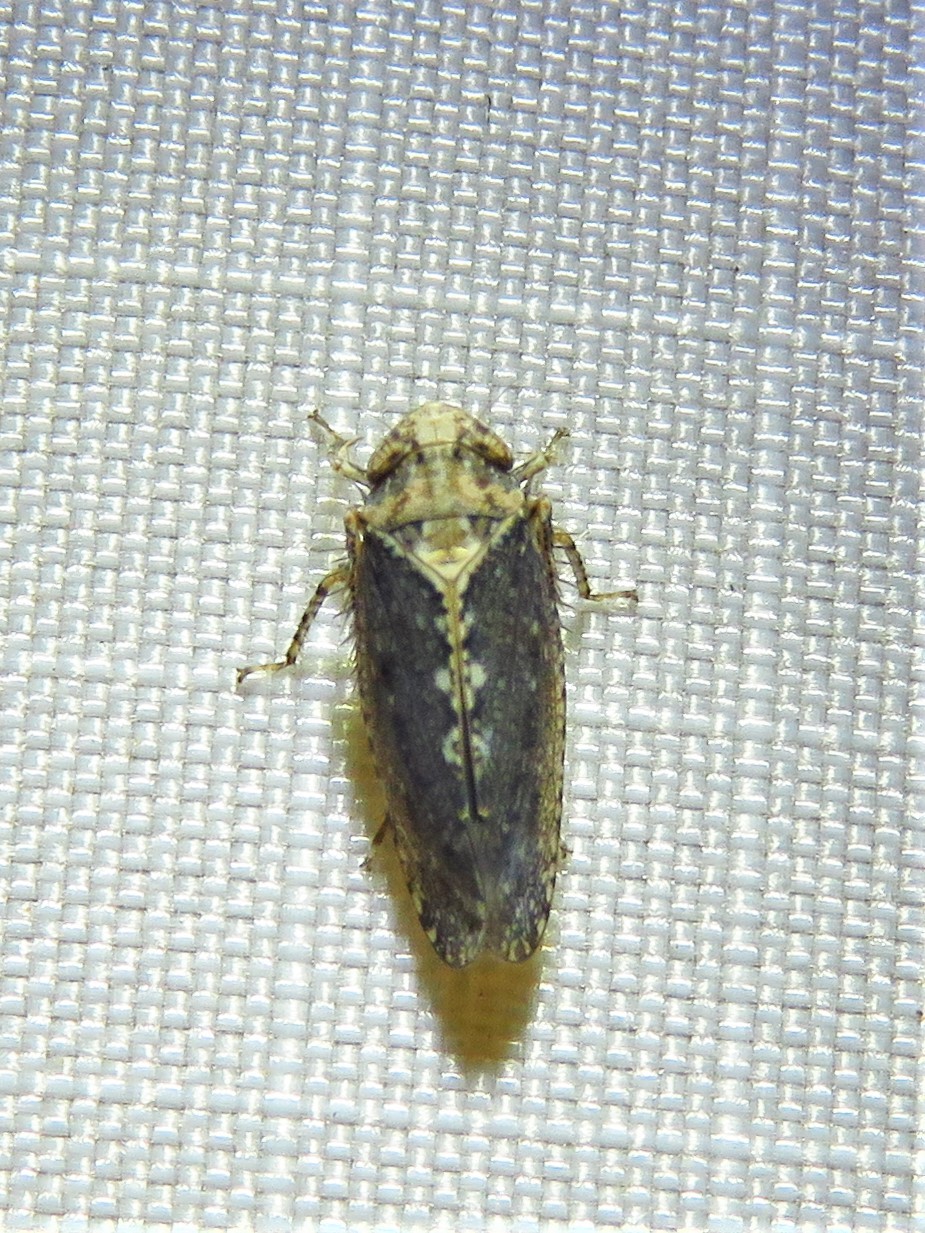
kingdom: Animalia
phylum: Arthropoda
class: Insecta
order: Hemiptera
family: Cicadellidae
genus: Excultanus
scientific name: Excultanus excultus
